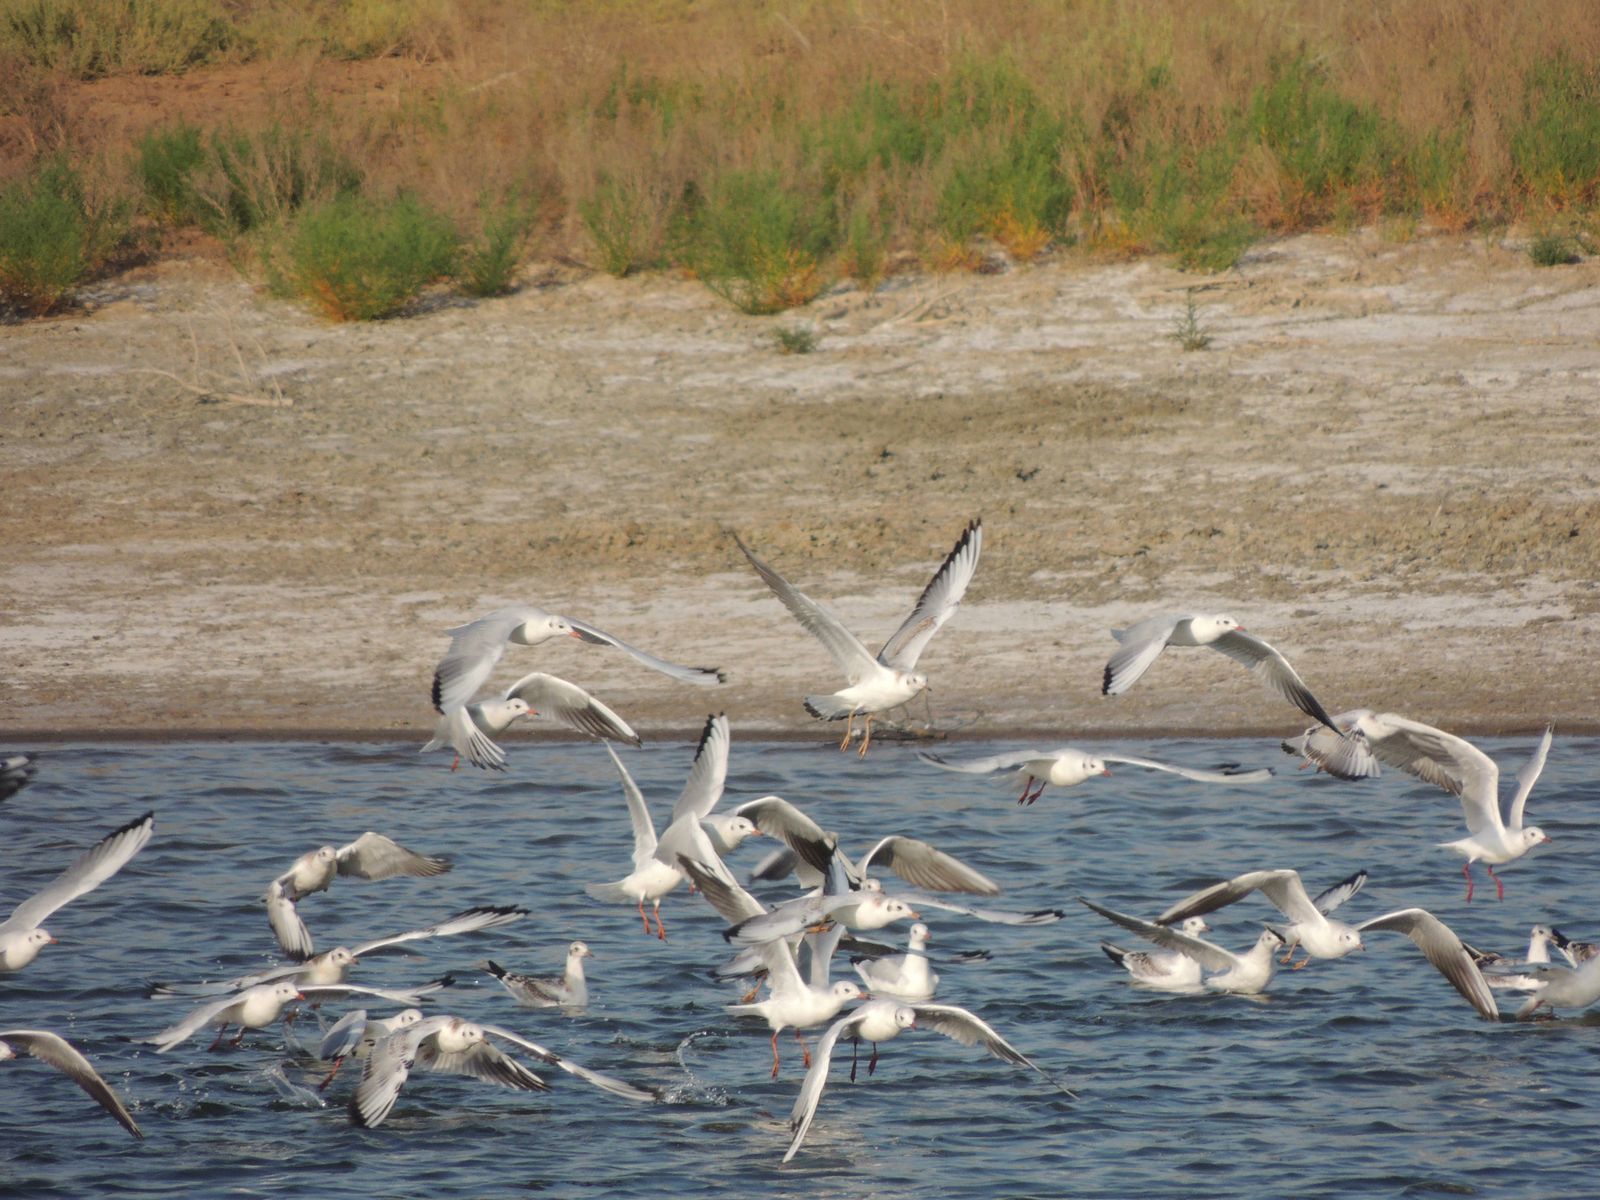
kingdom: Animalia
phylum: Chordata
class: Aves
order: Charadriiformes
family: Laridae
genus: Chroicocephalus
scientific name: Chroicocephalus ridibundus
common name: Black-headed gull
